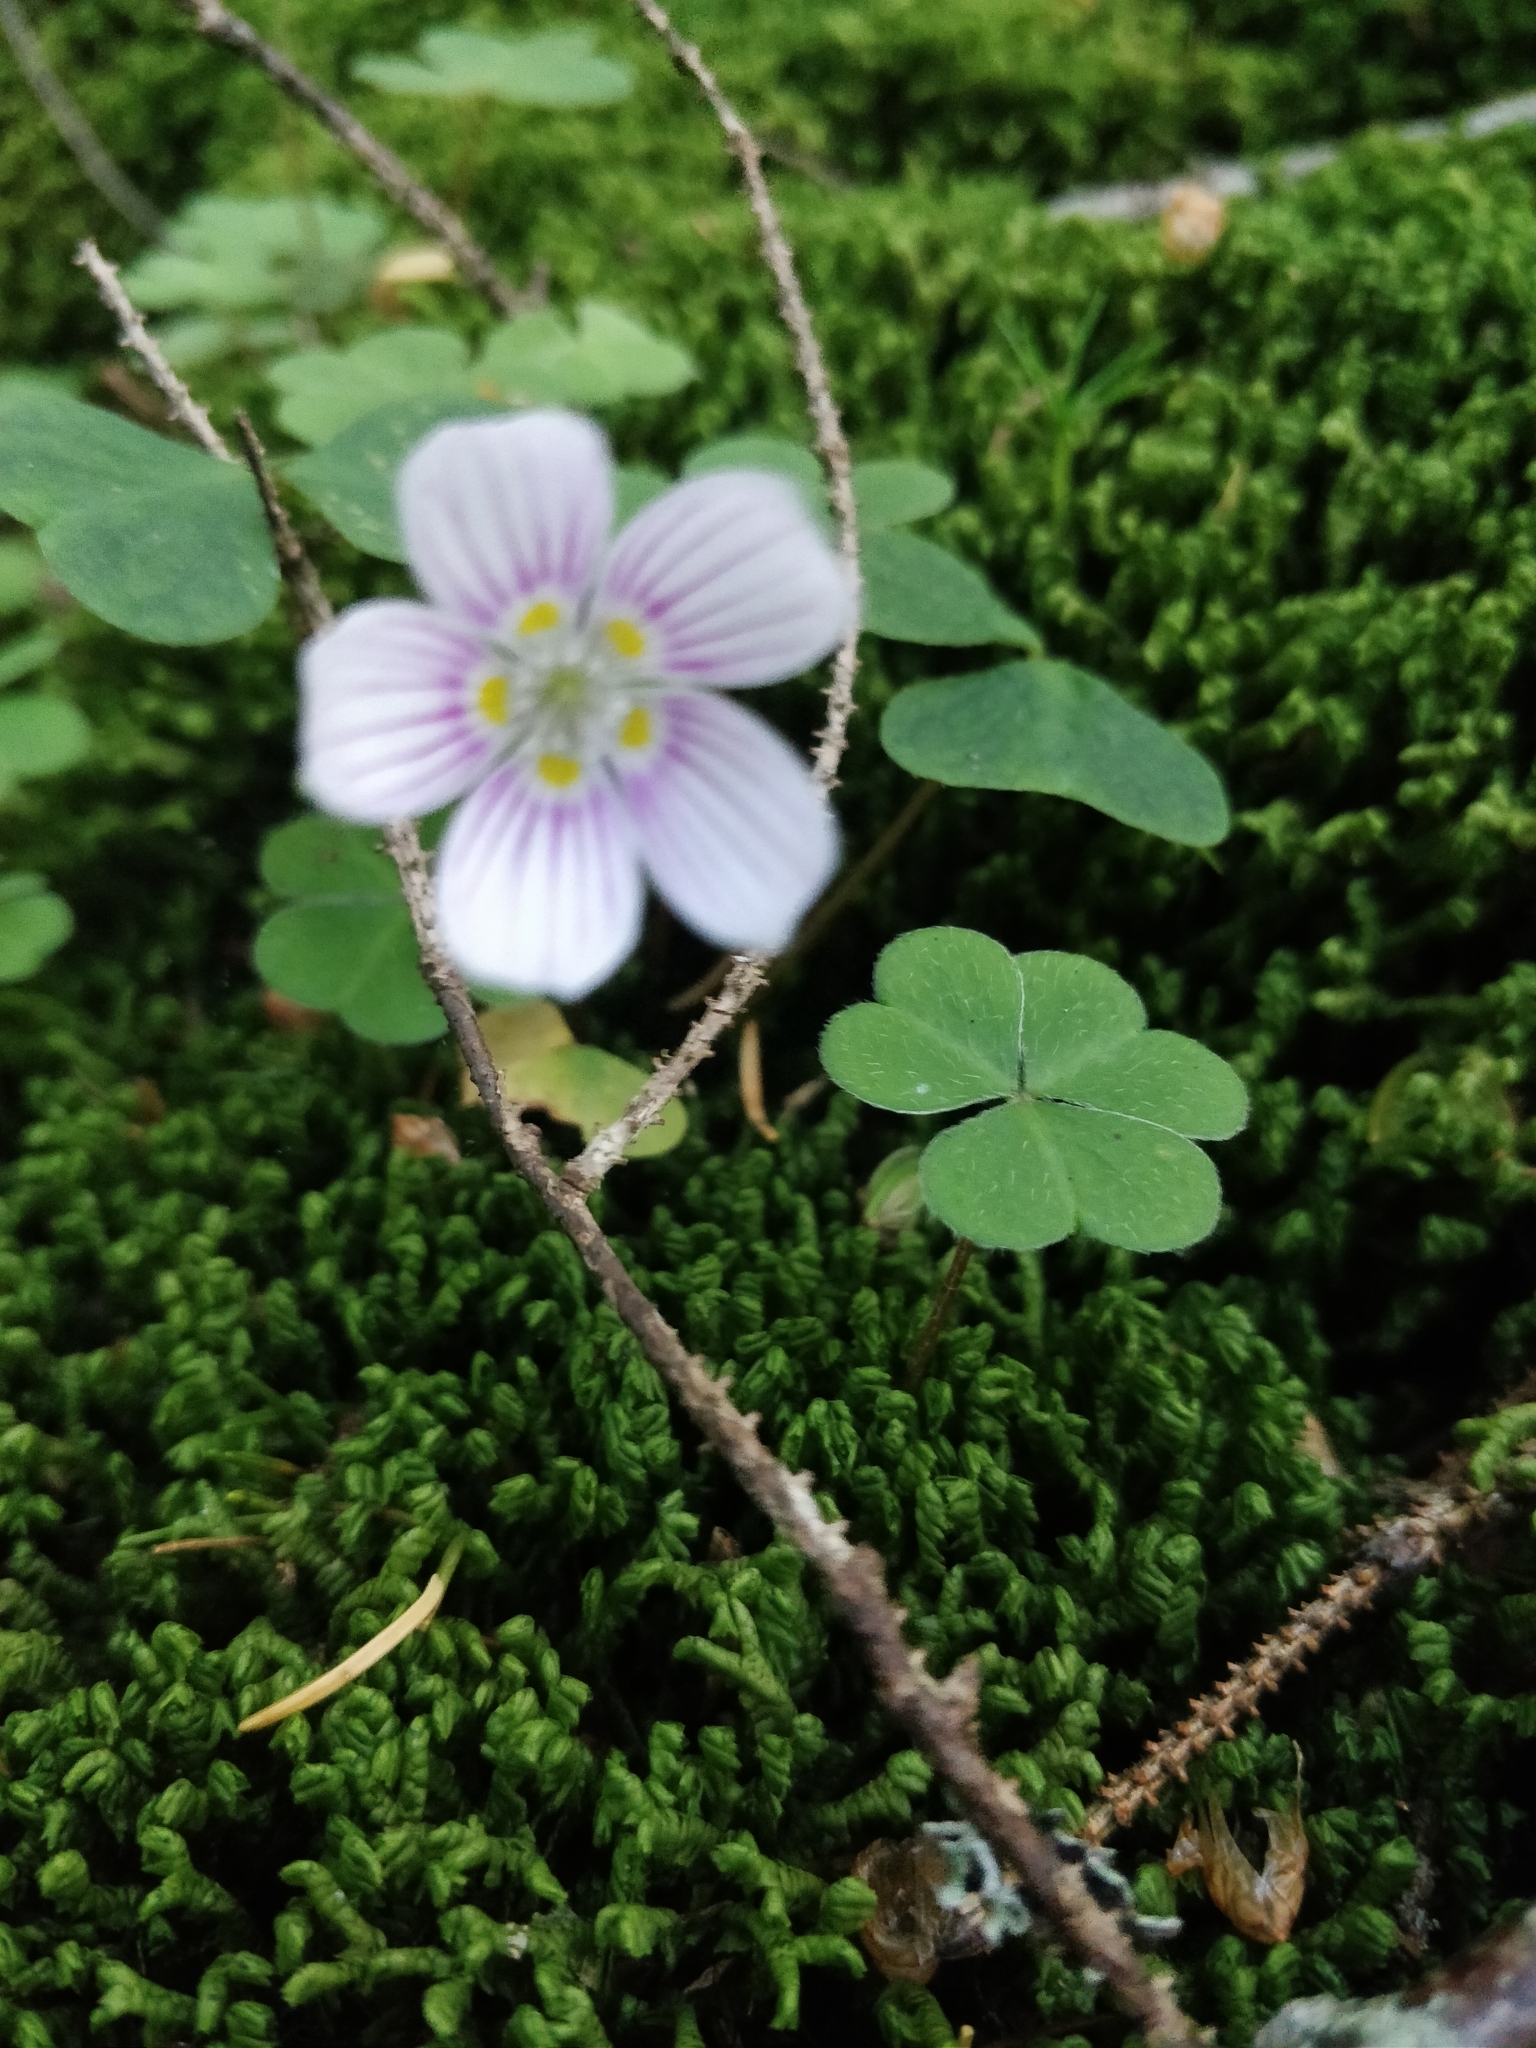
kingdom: Plantae
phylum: Tracheophyta
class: Magnoliopsida
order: Oxalidales
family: Oxalidaceae
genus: Oxalis
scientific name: Oxalis montana
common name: American wood-sorrel
